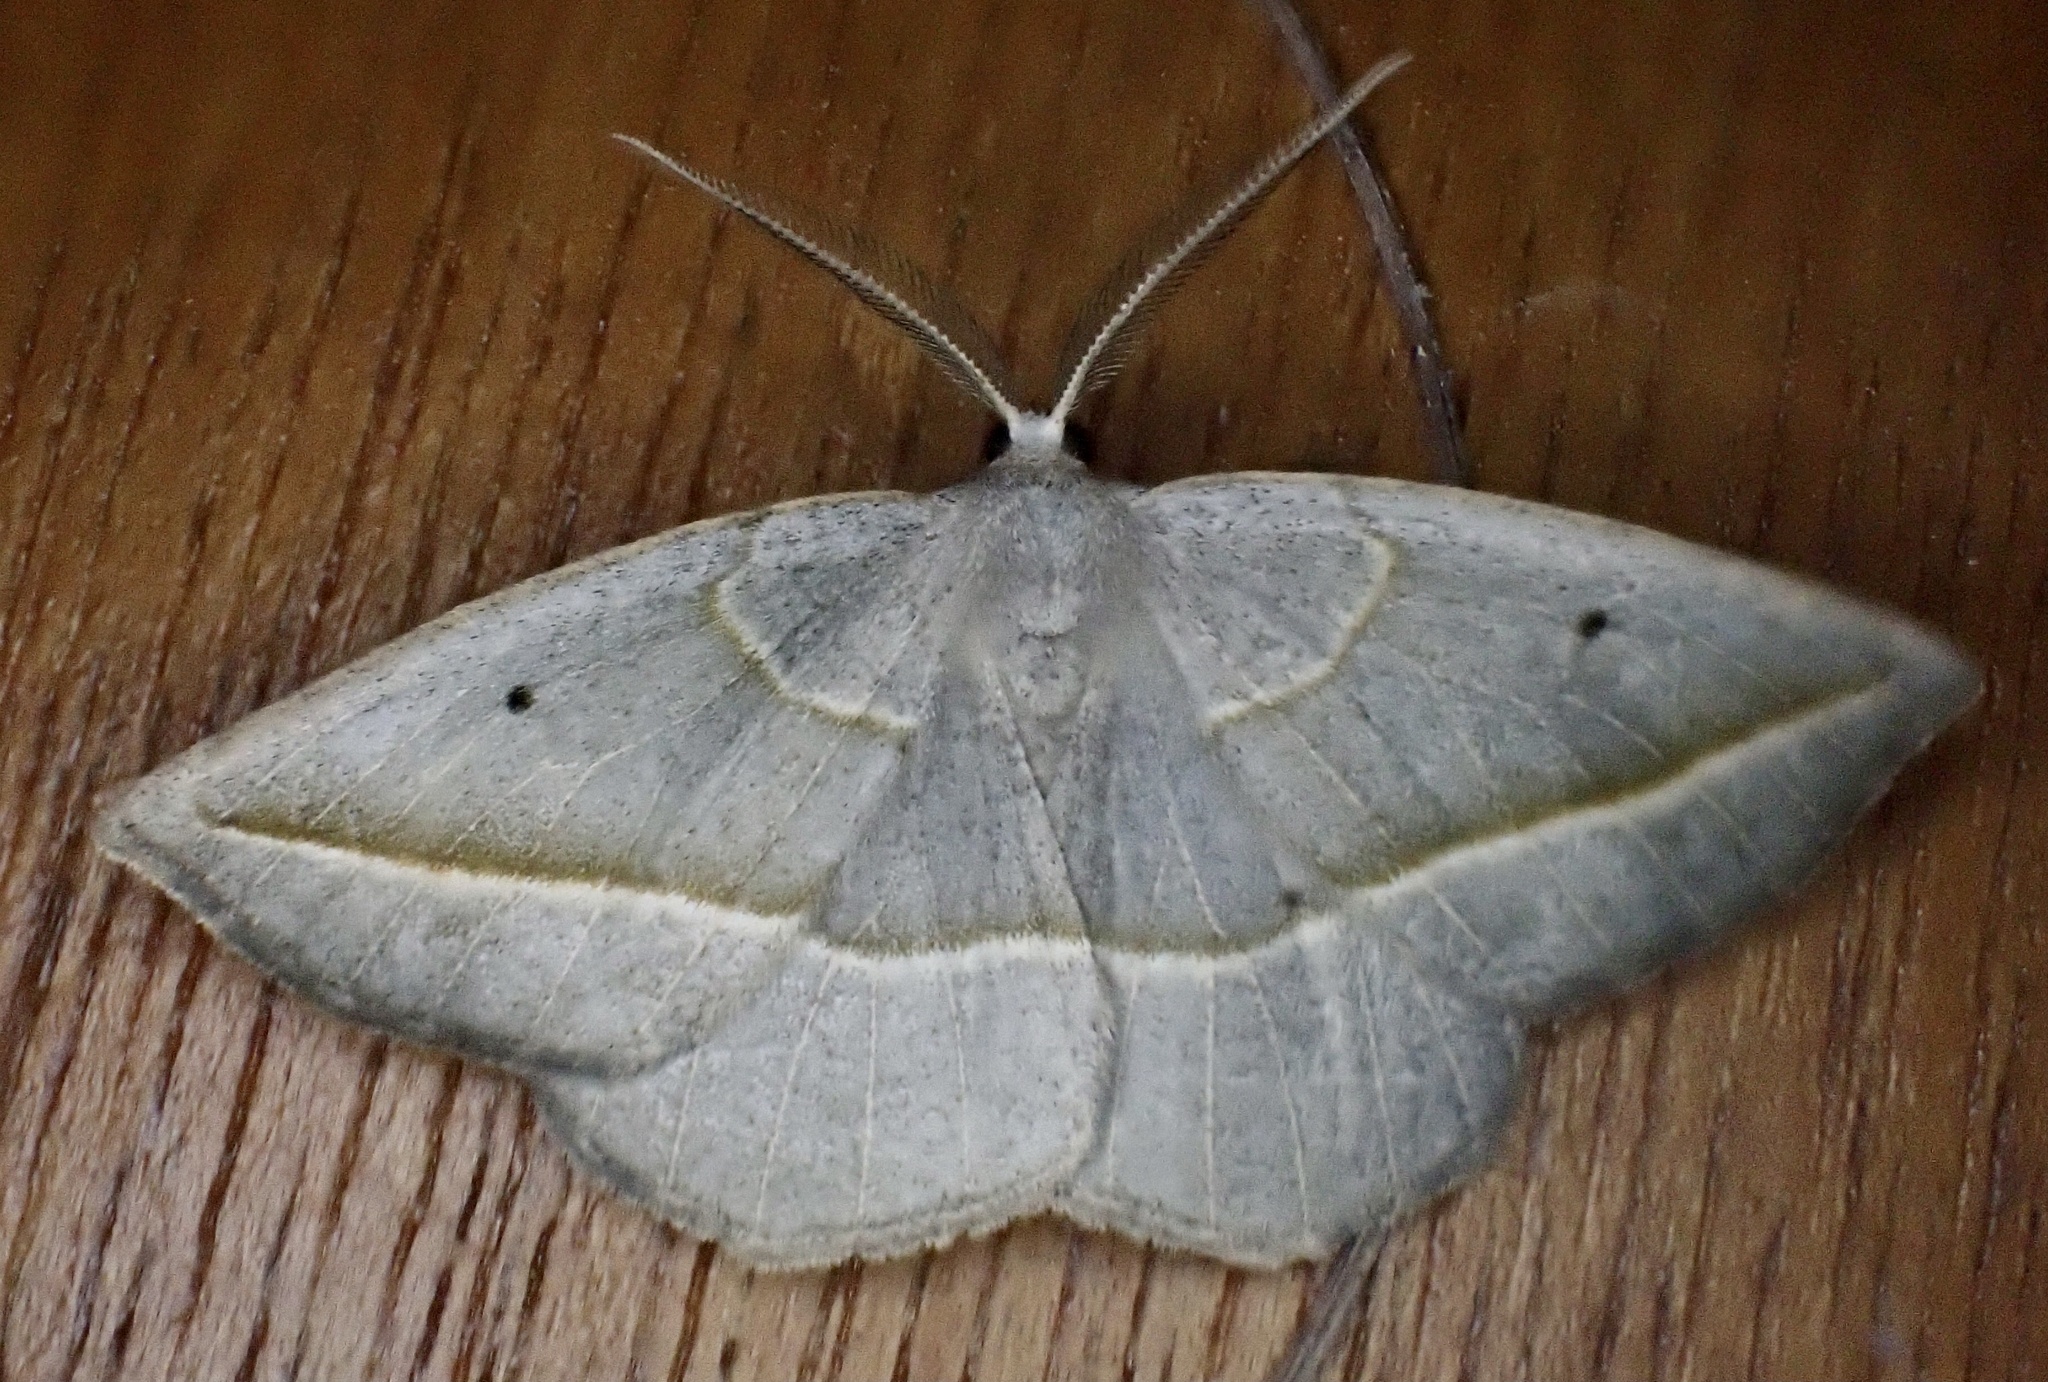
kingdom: Animalia
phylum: Arthropoda
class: Insecta
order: Lepidoptera
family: Geometridae
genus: Eusarca
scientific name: Eusarca confusaria
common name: Confused eusarca
